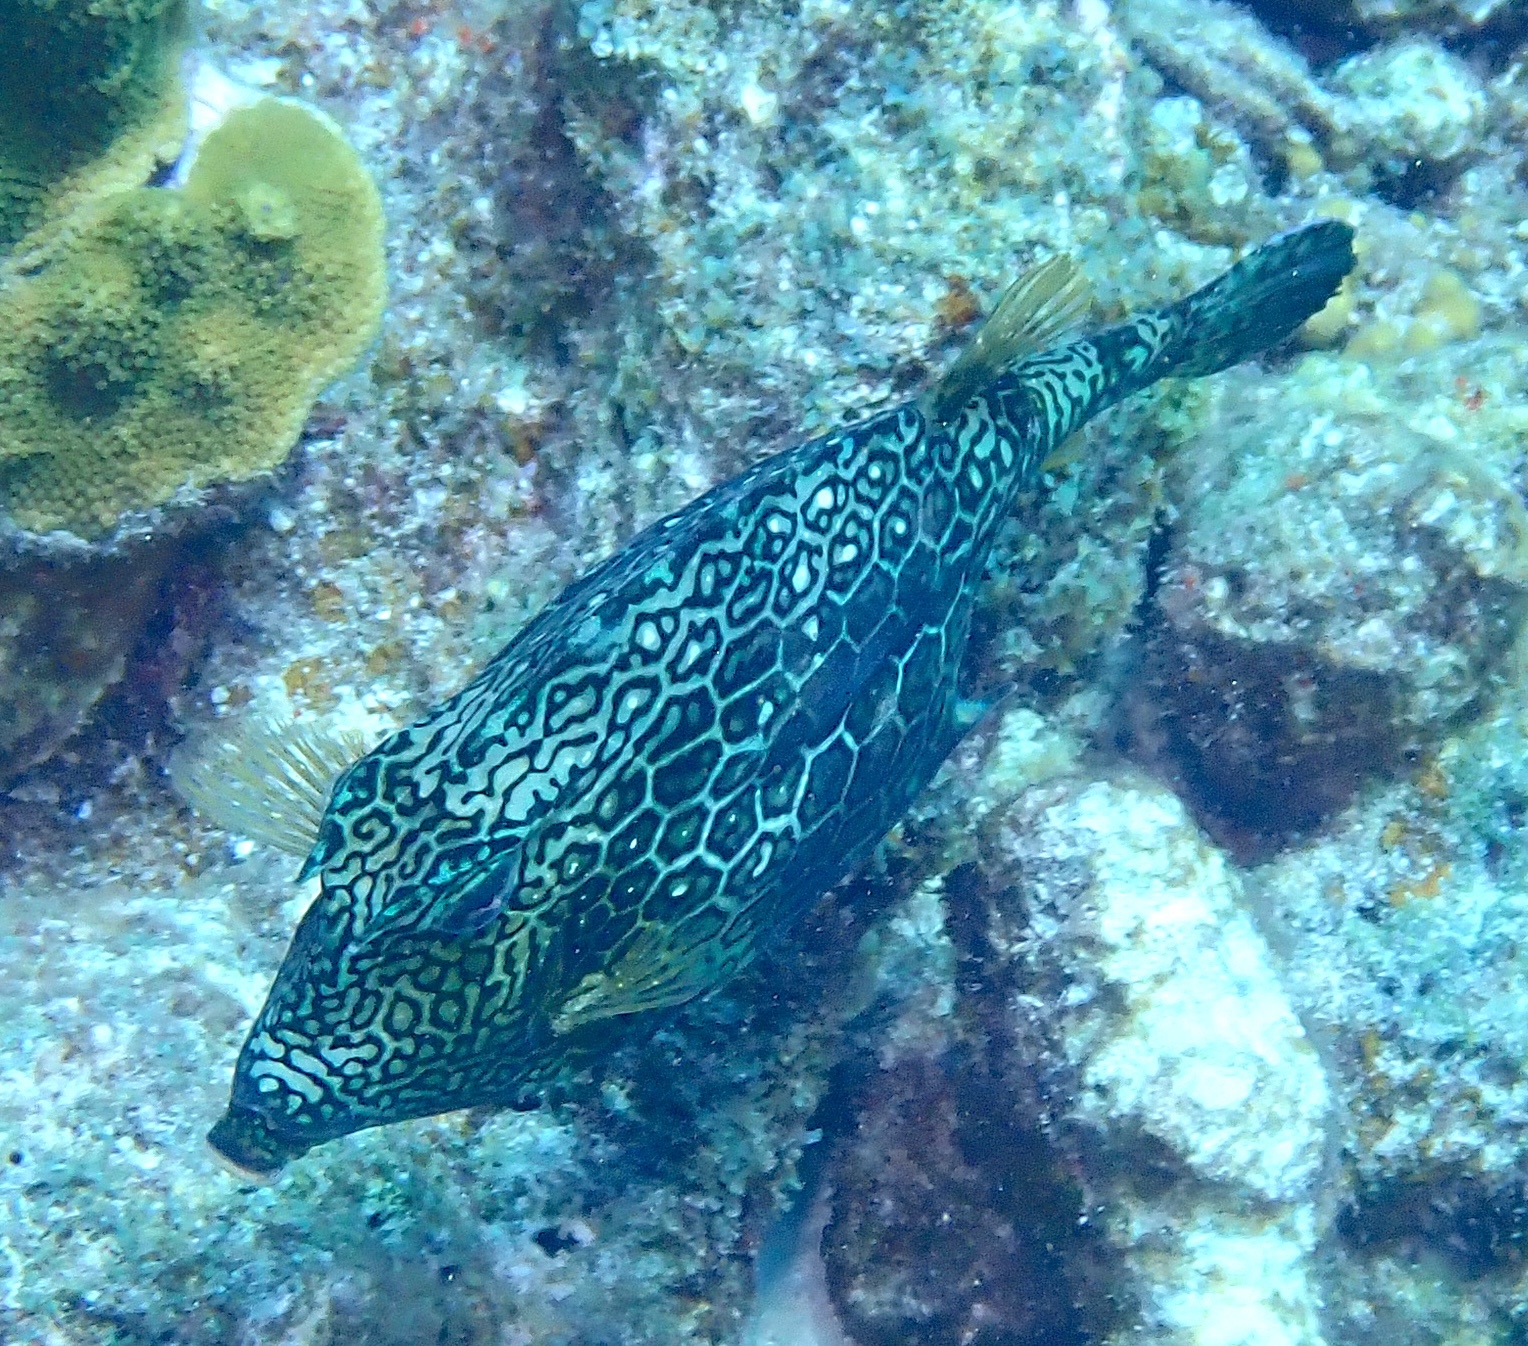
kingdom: Animalia
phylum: Chordata
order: Tetraodontiformes
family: Ostraciidae
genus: Acanthostracion
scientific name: Acanthostracion polygonius
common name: Honeycomb cowfish
